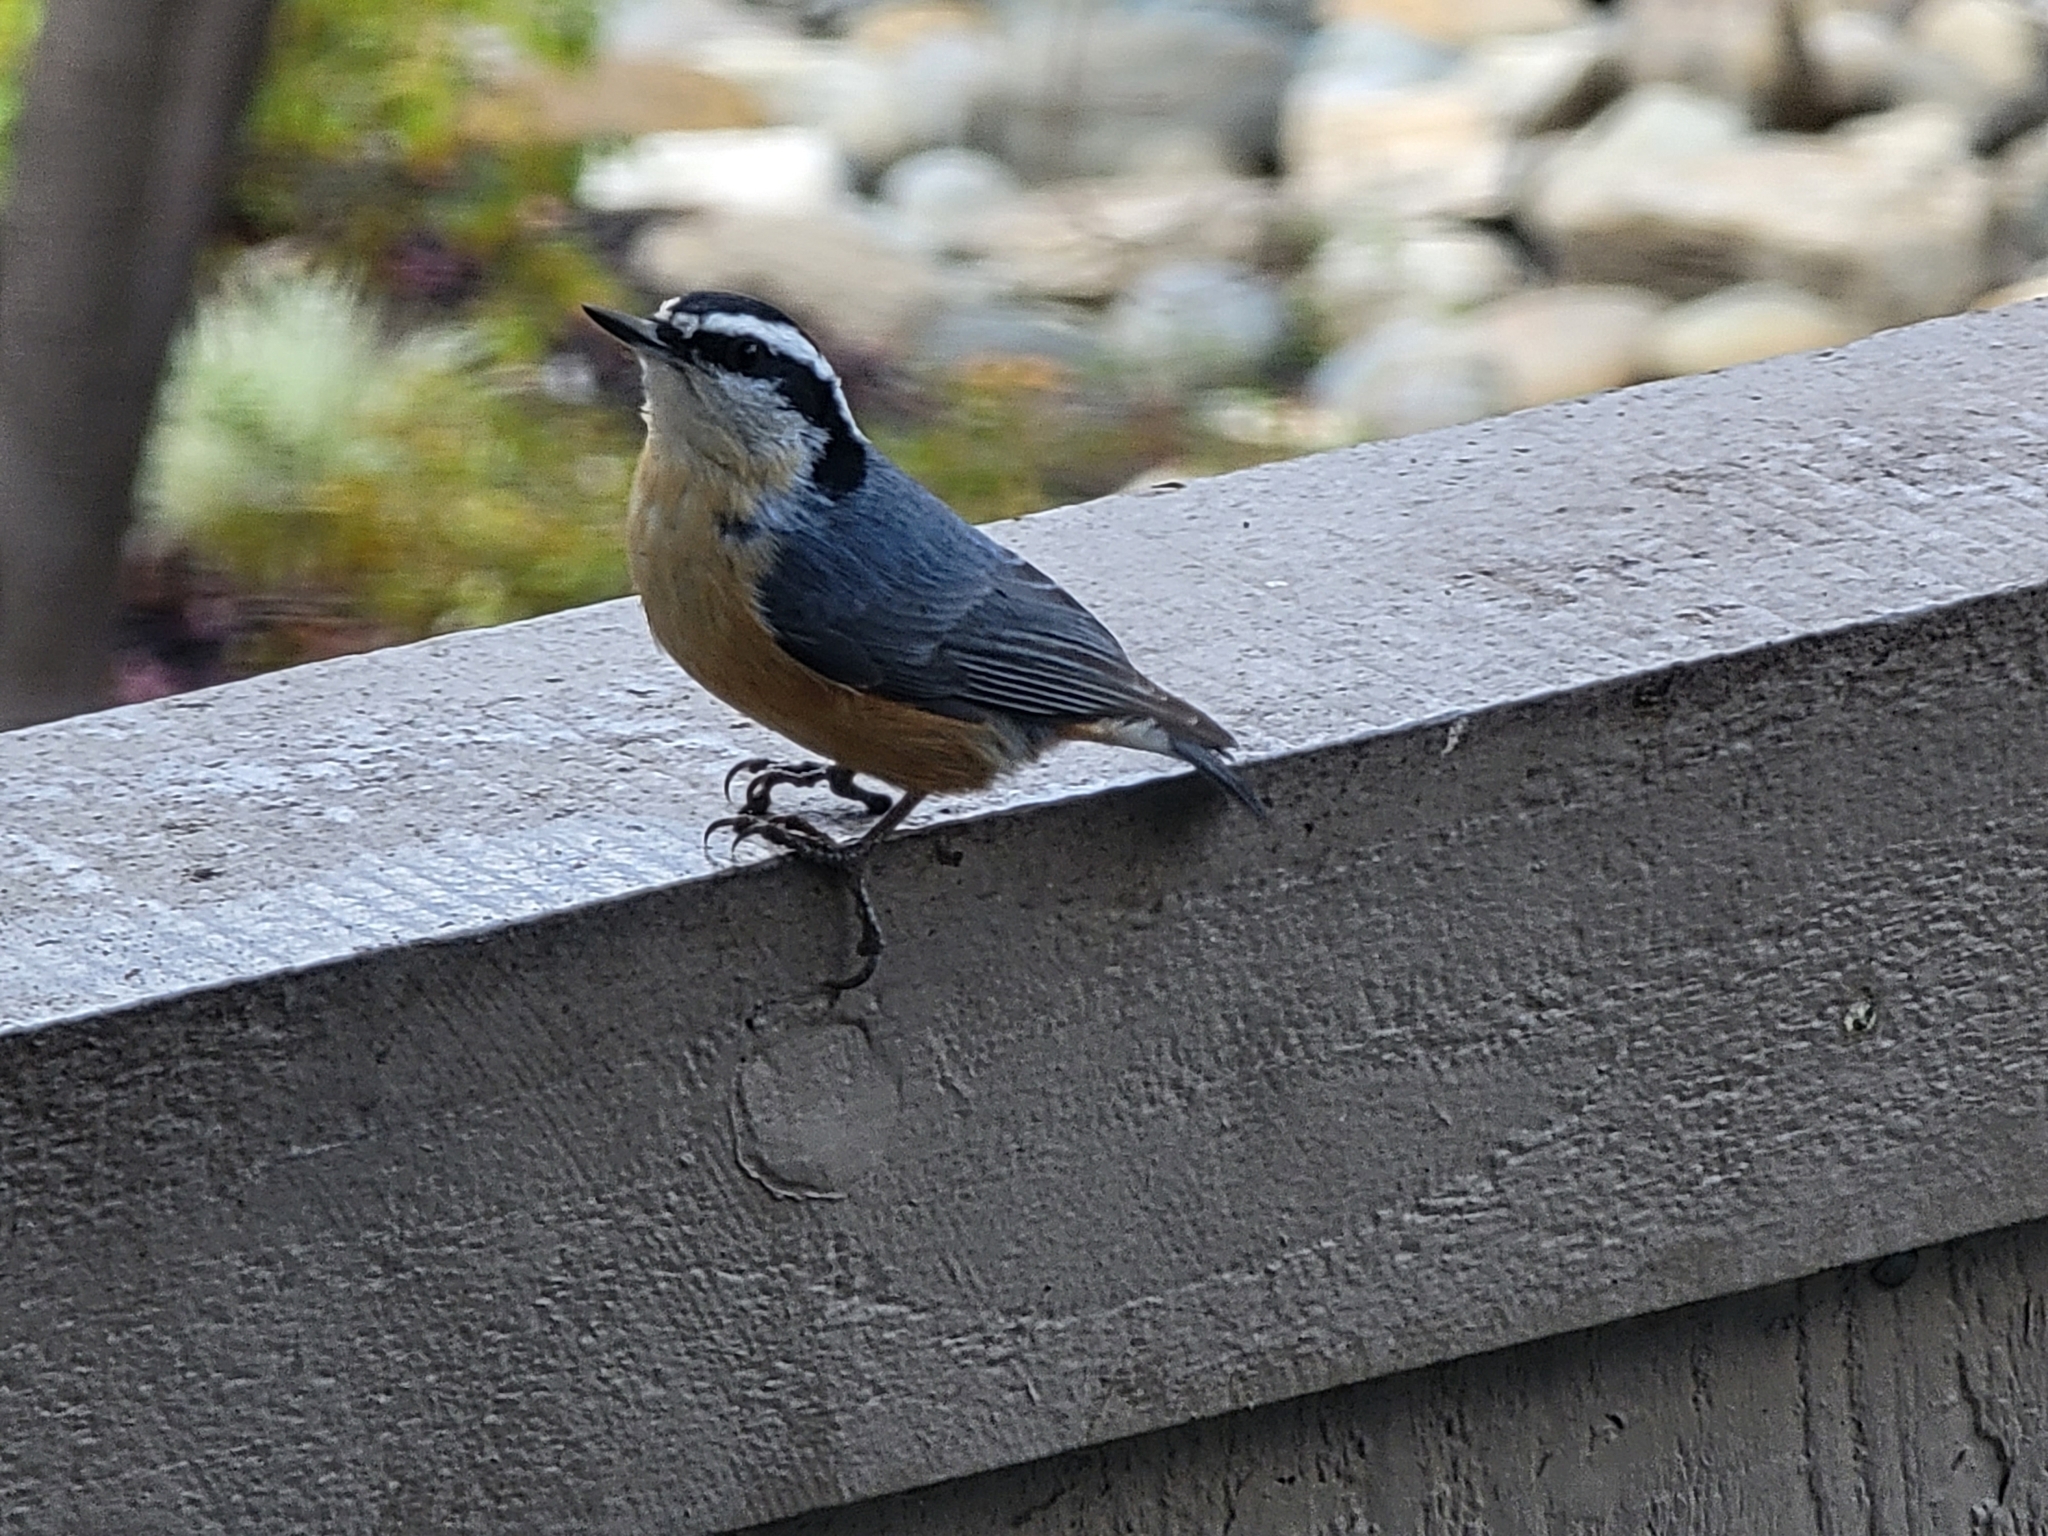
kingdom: Animalia
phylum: Chordata
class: Aves
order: Passeriformes
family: Sittidae
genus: Sitta
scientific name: Sitta canadensis
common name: Red-breasted nuthatch
